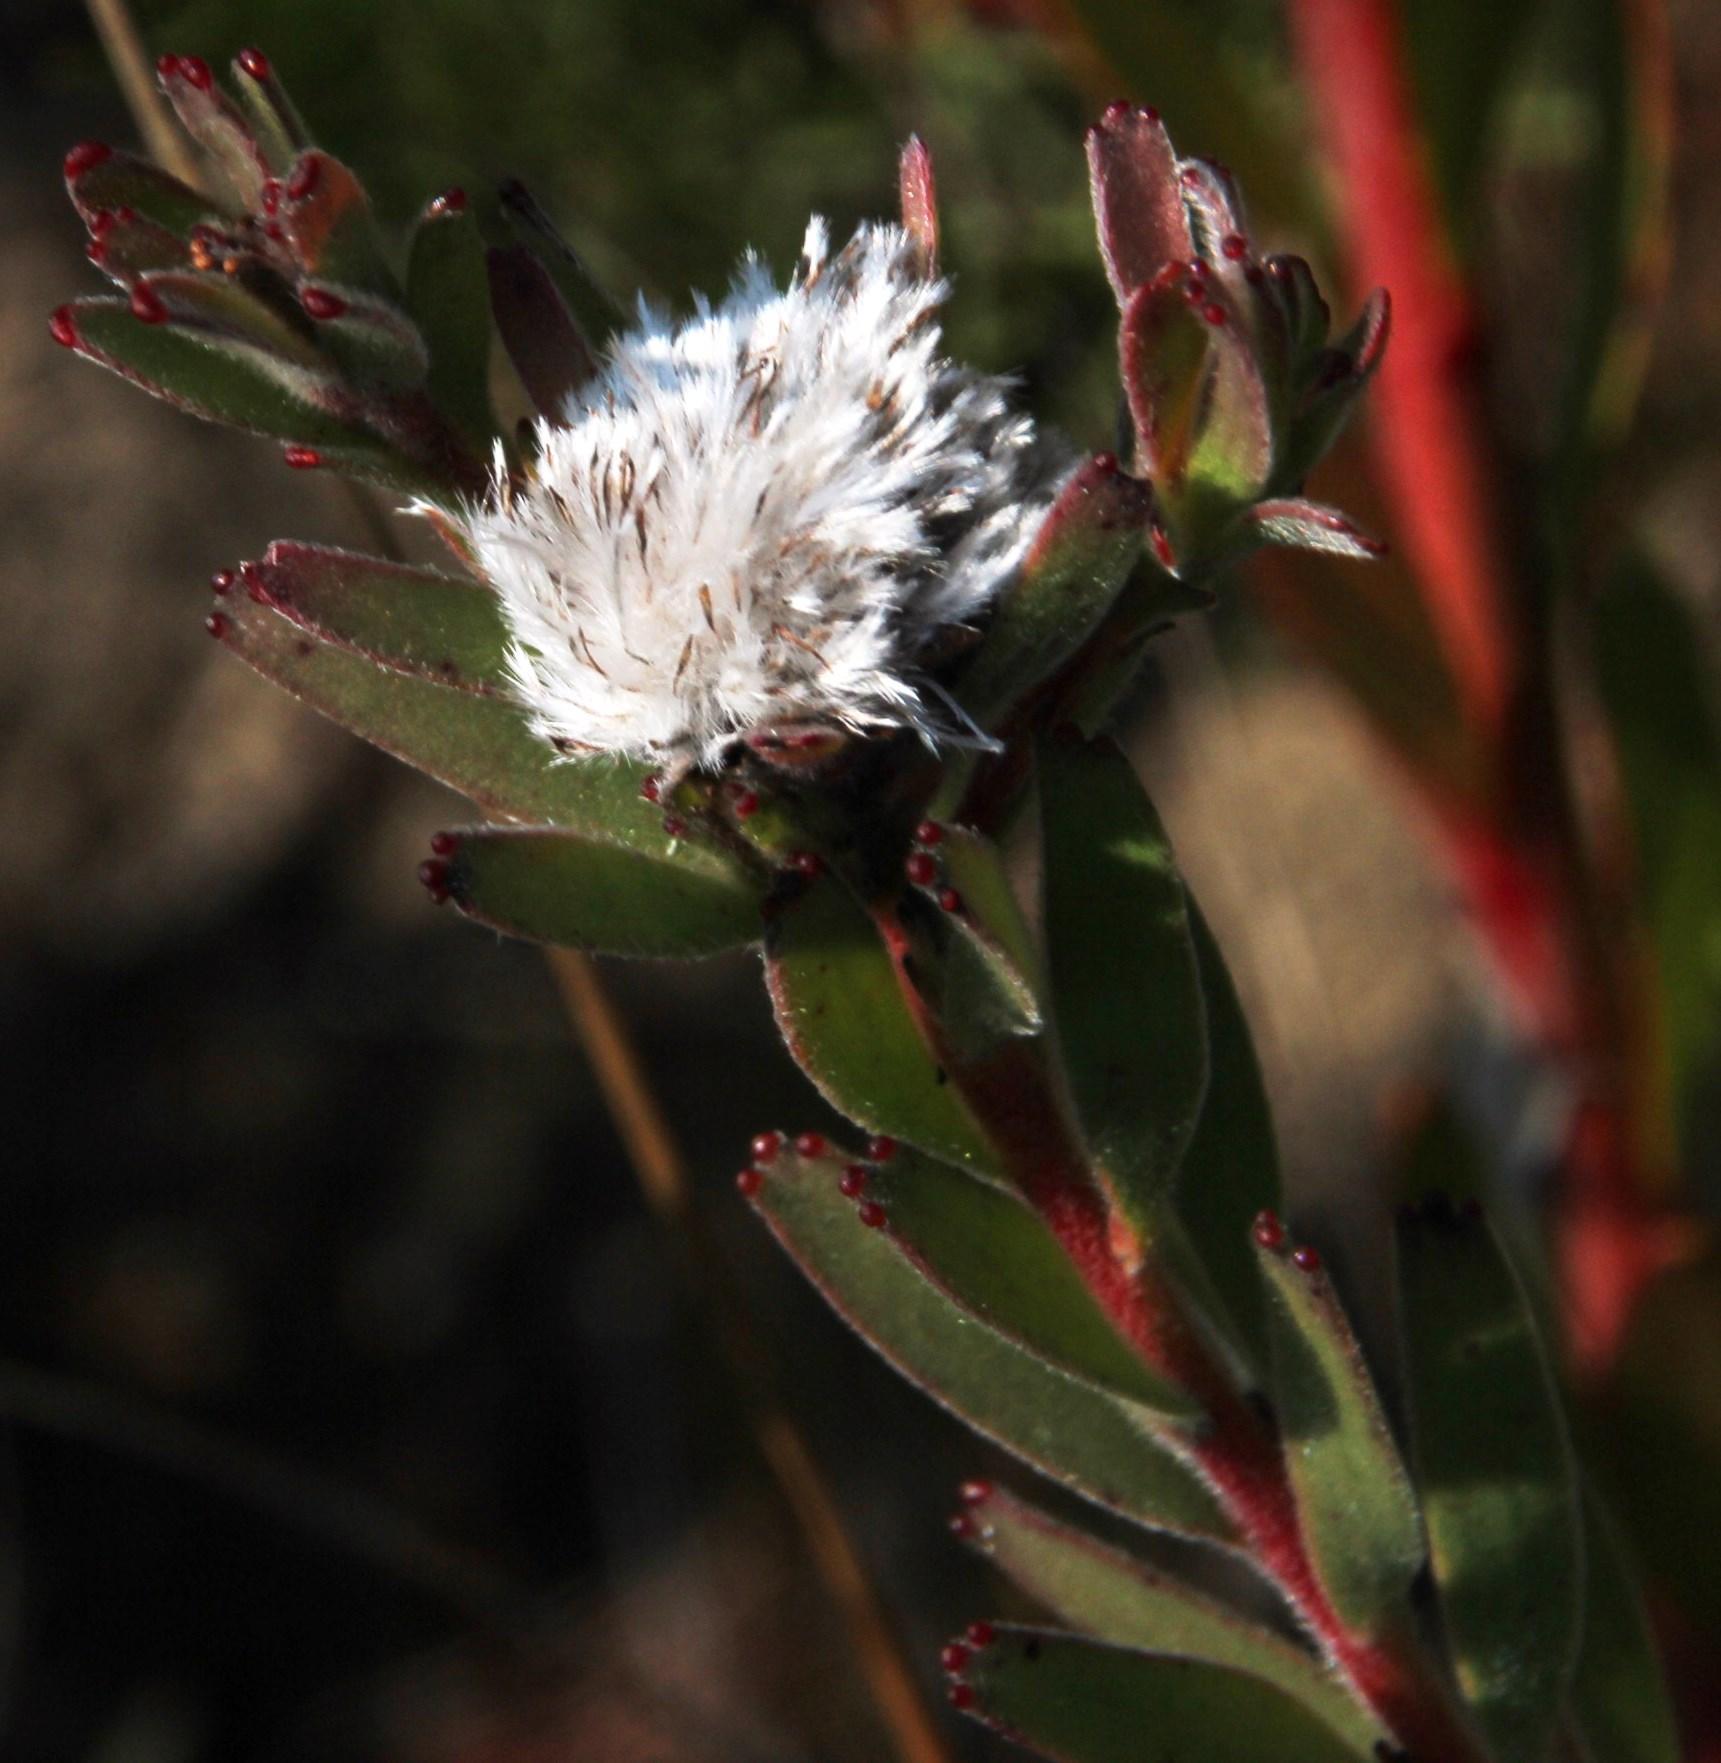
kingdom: Plantae
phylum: Tracheophyta
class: Magnoliopsida
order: Proteales
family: Proteaceae
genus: Diastella
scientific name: Diastella parilis
